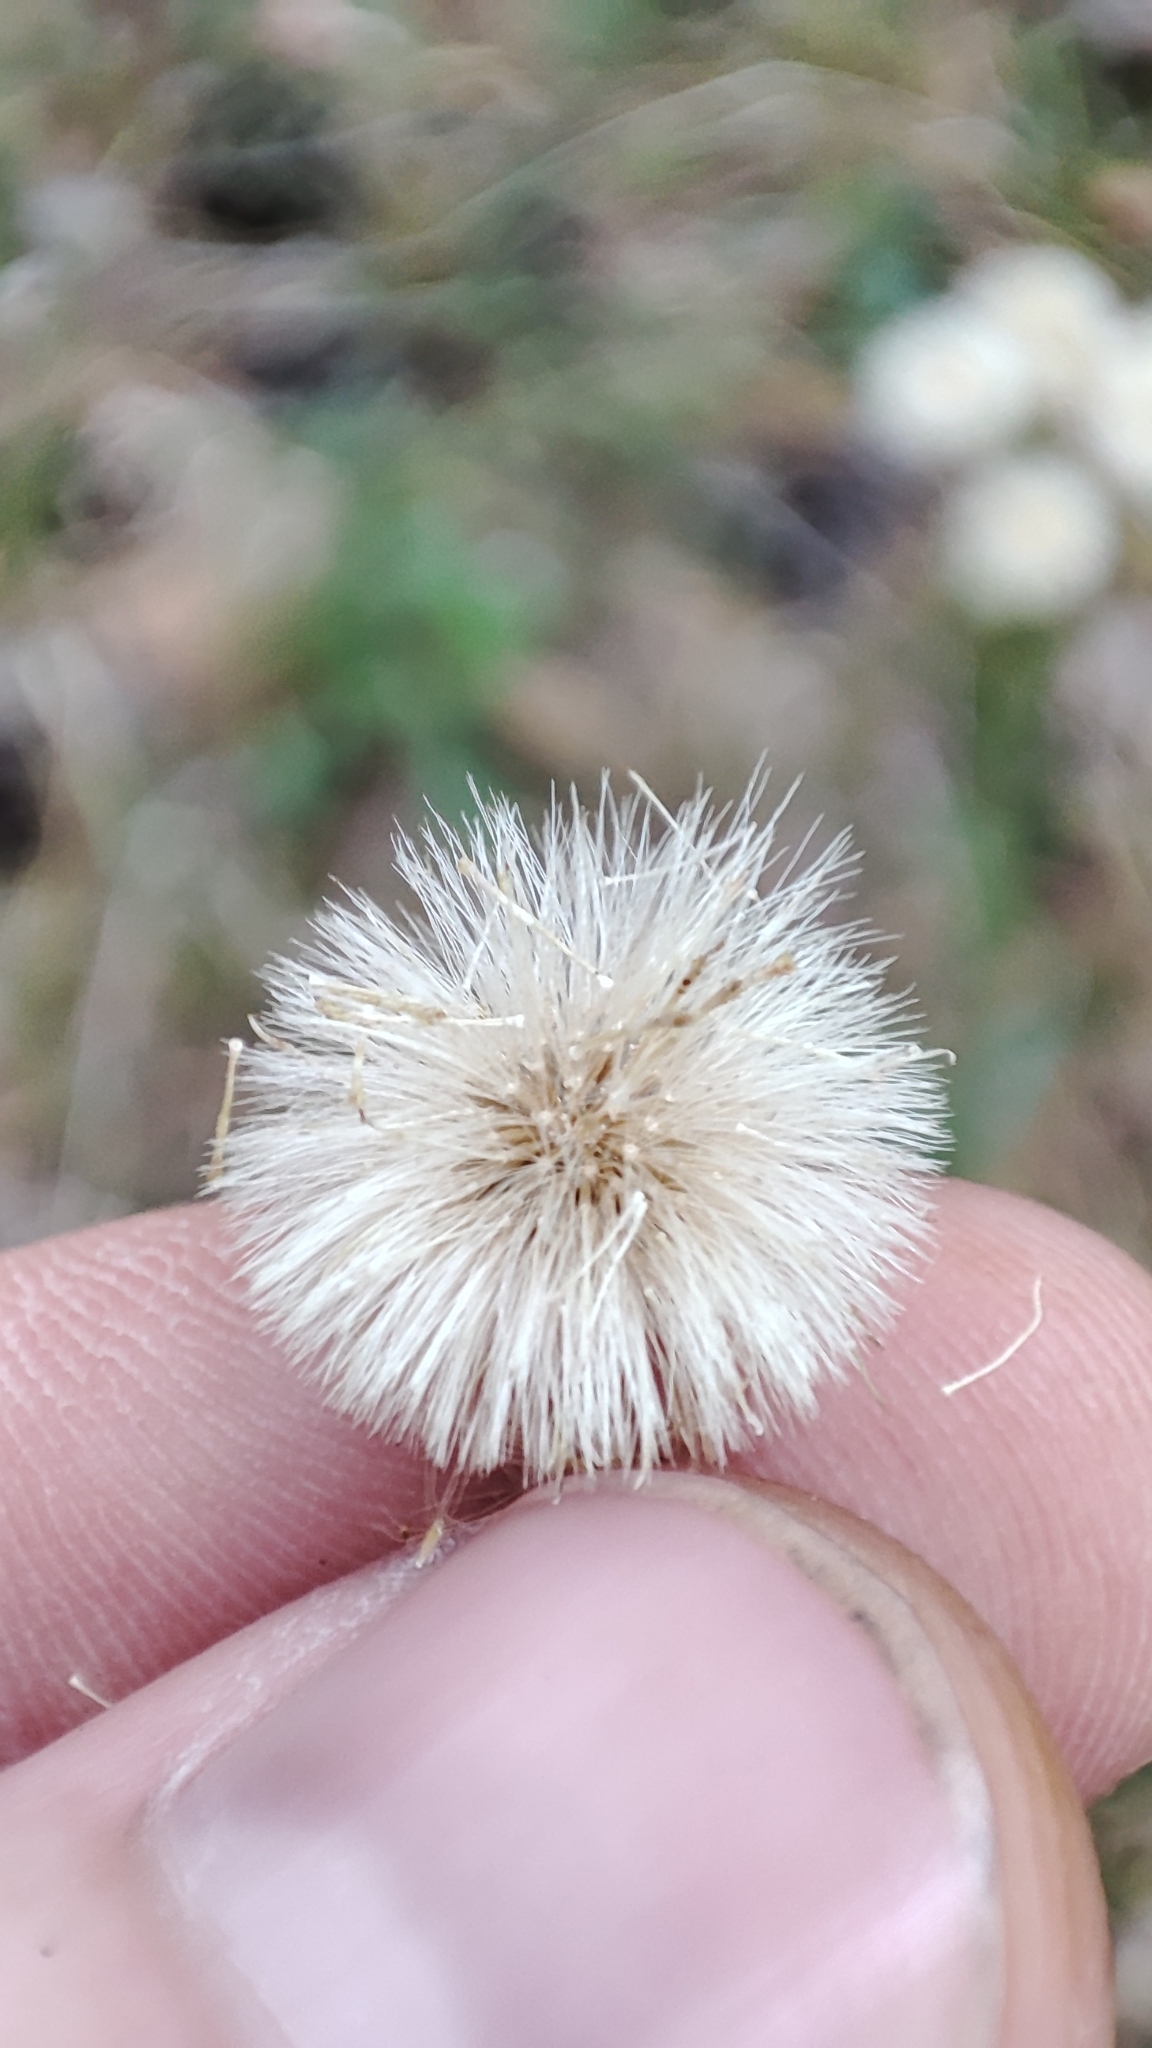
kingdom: Plantae
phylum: Tracheophyta
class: Magnoliopsida
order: Asterales
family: Asteraceae
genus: Erigeron
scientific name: Erigeron acris
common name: Blue fleabane
